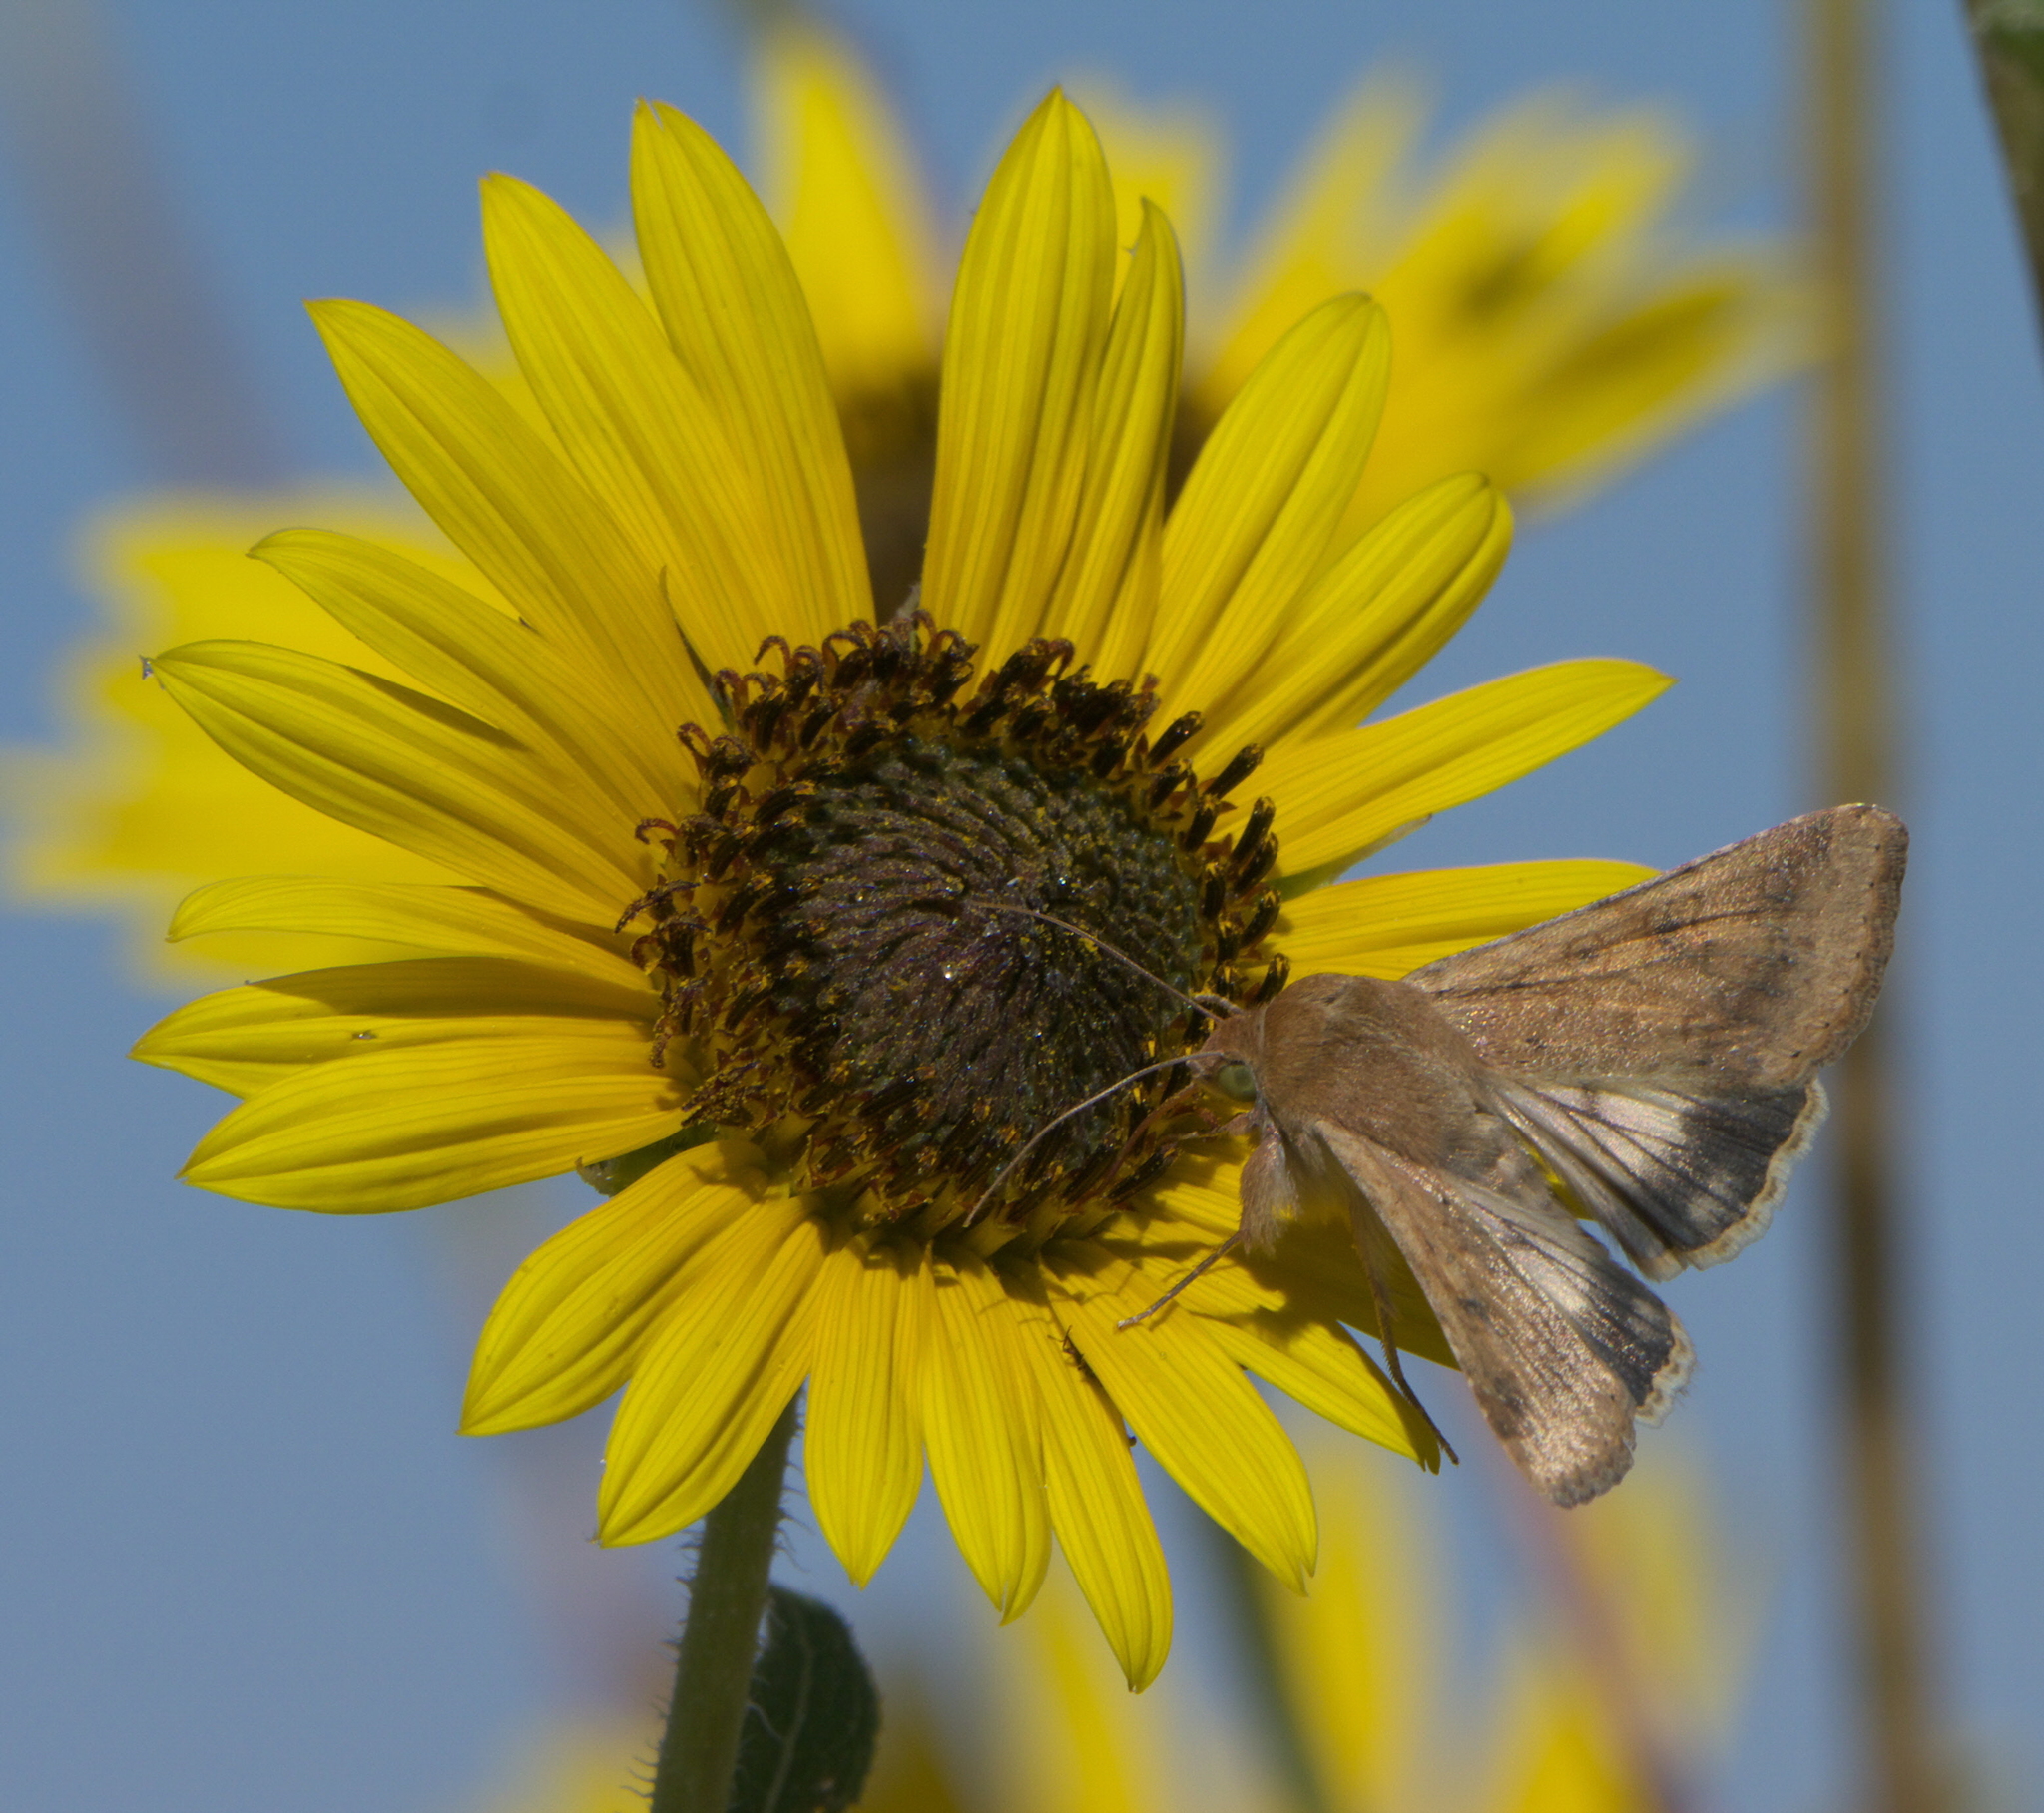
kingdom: Animalia
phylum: Arthropoda
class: Insecta
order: Lepidoptera
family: Noctuidae
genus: Helicoverpa
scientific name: Helicoverpa zea
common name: Bollworm
